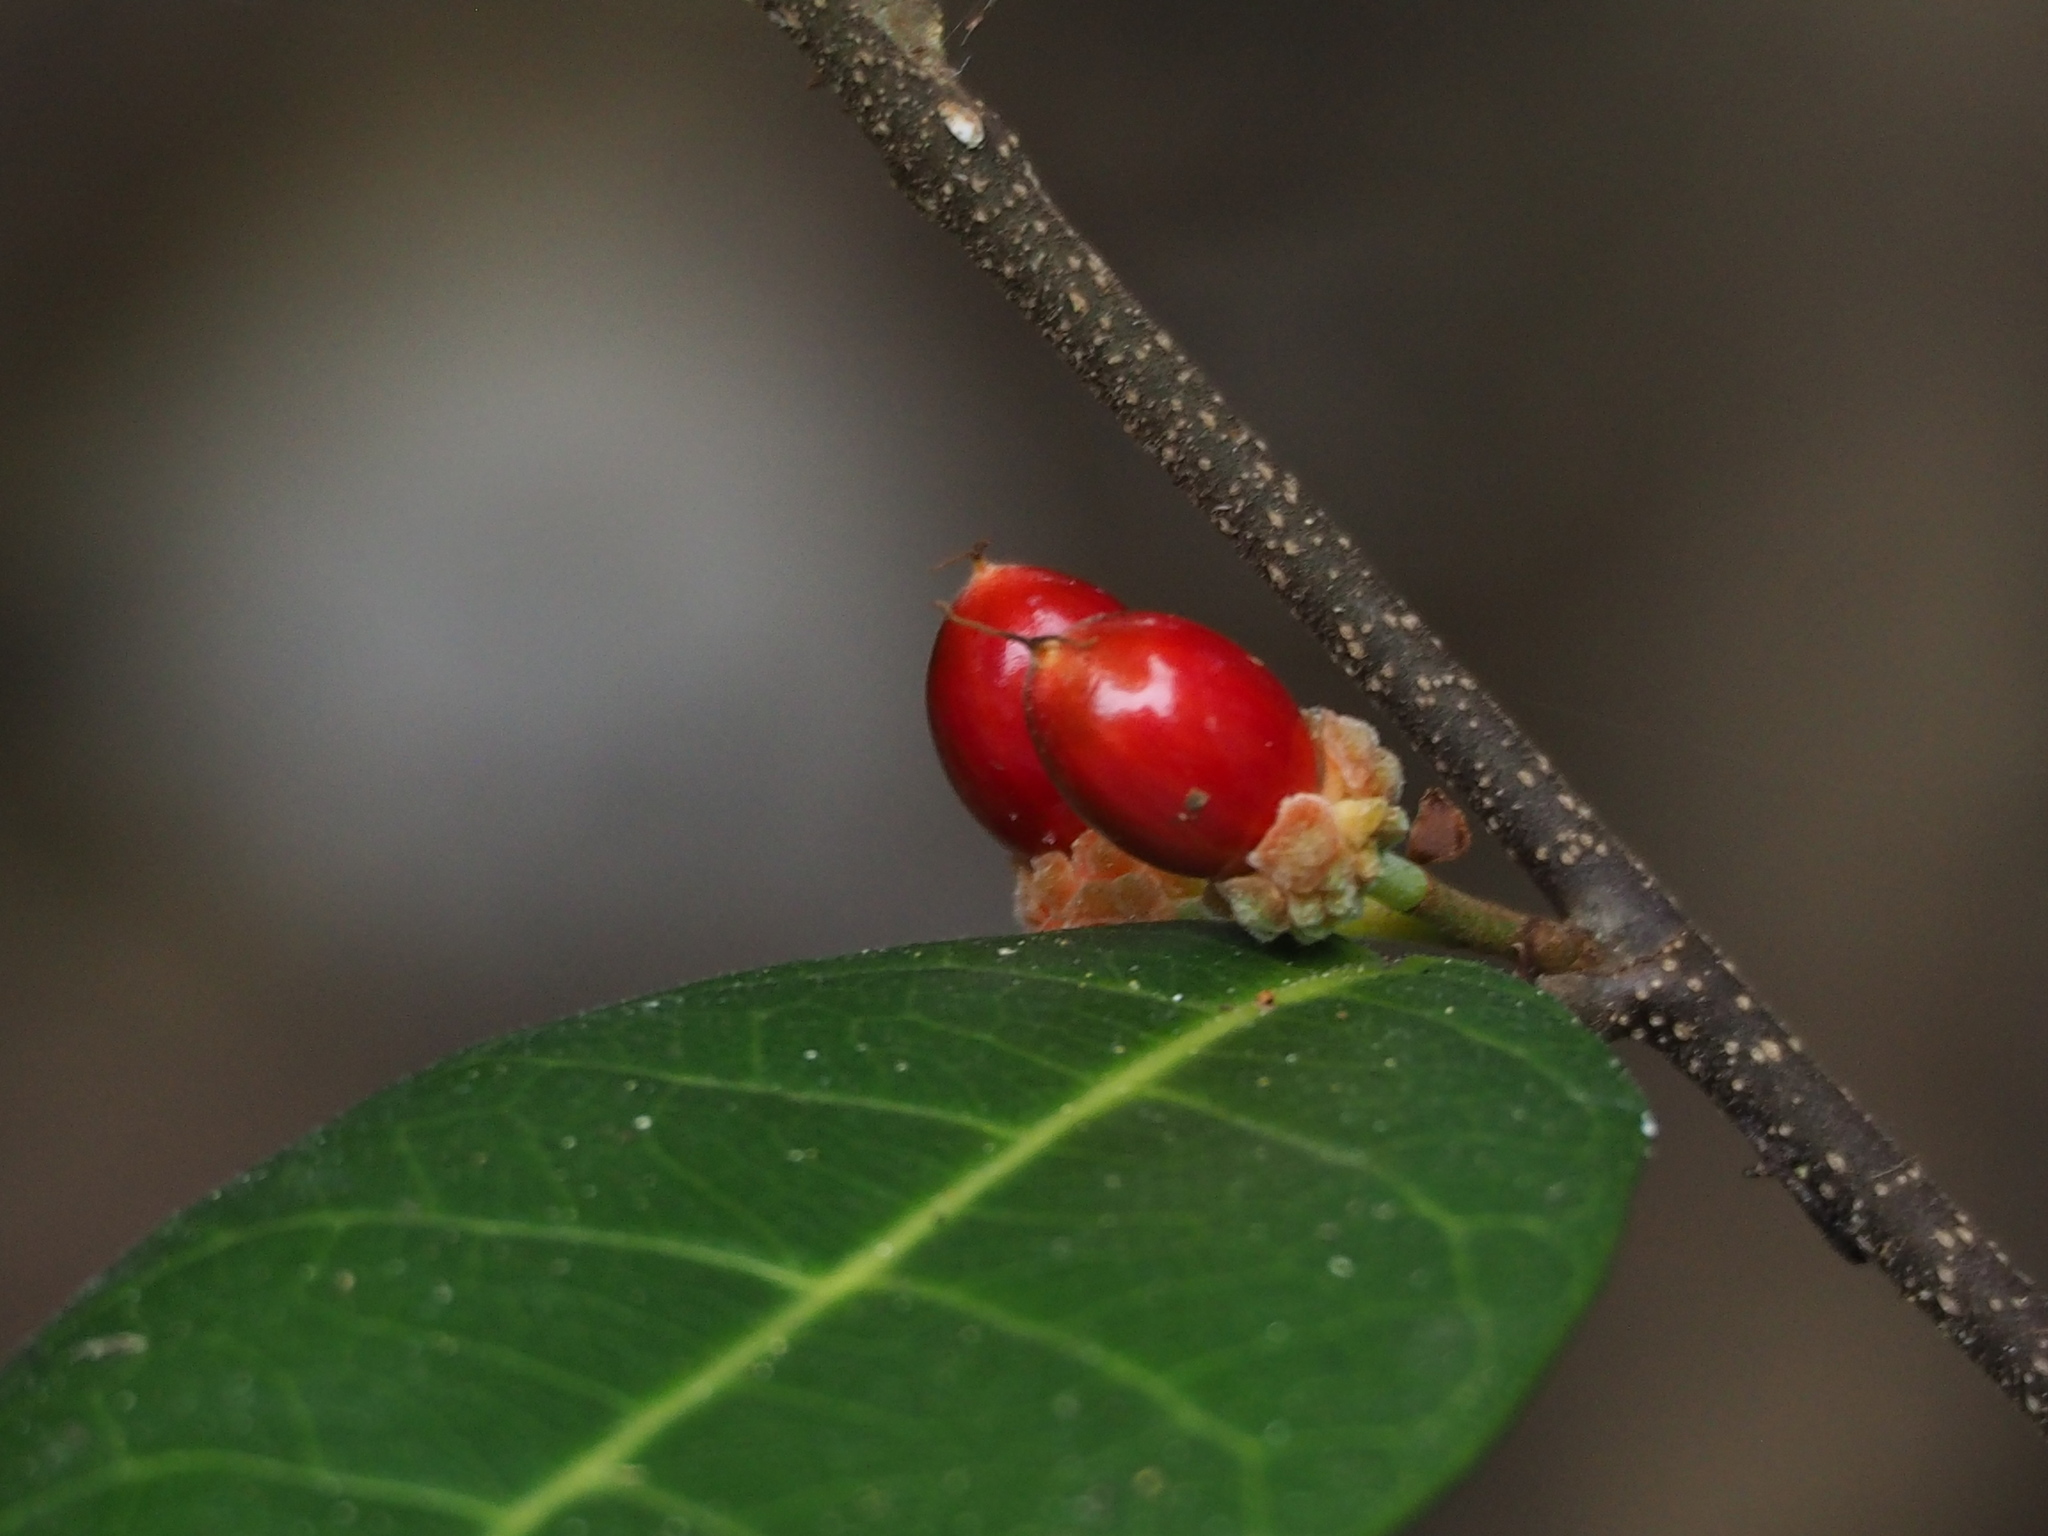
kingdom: Plantae
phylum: Tracheophyta
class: Magnoliopsida
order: Rosales
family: Moraceae
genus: Malaisia
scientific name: Malaisia scandens
